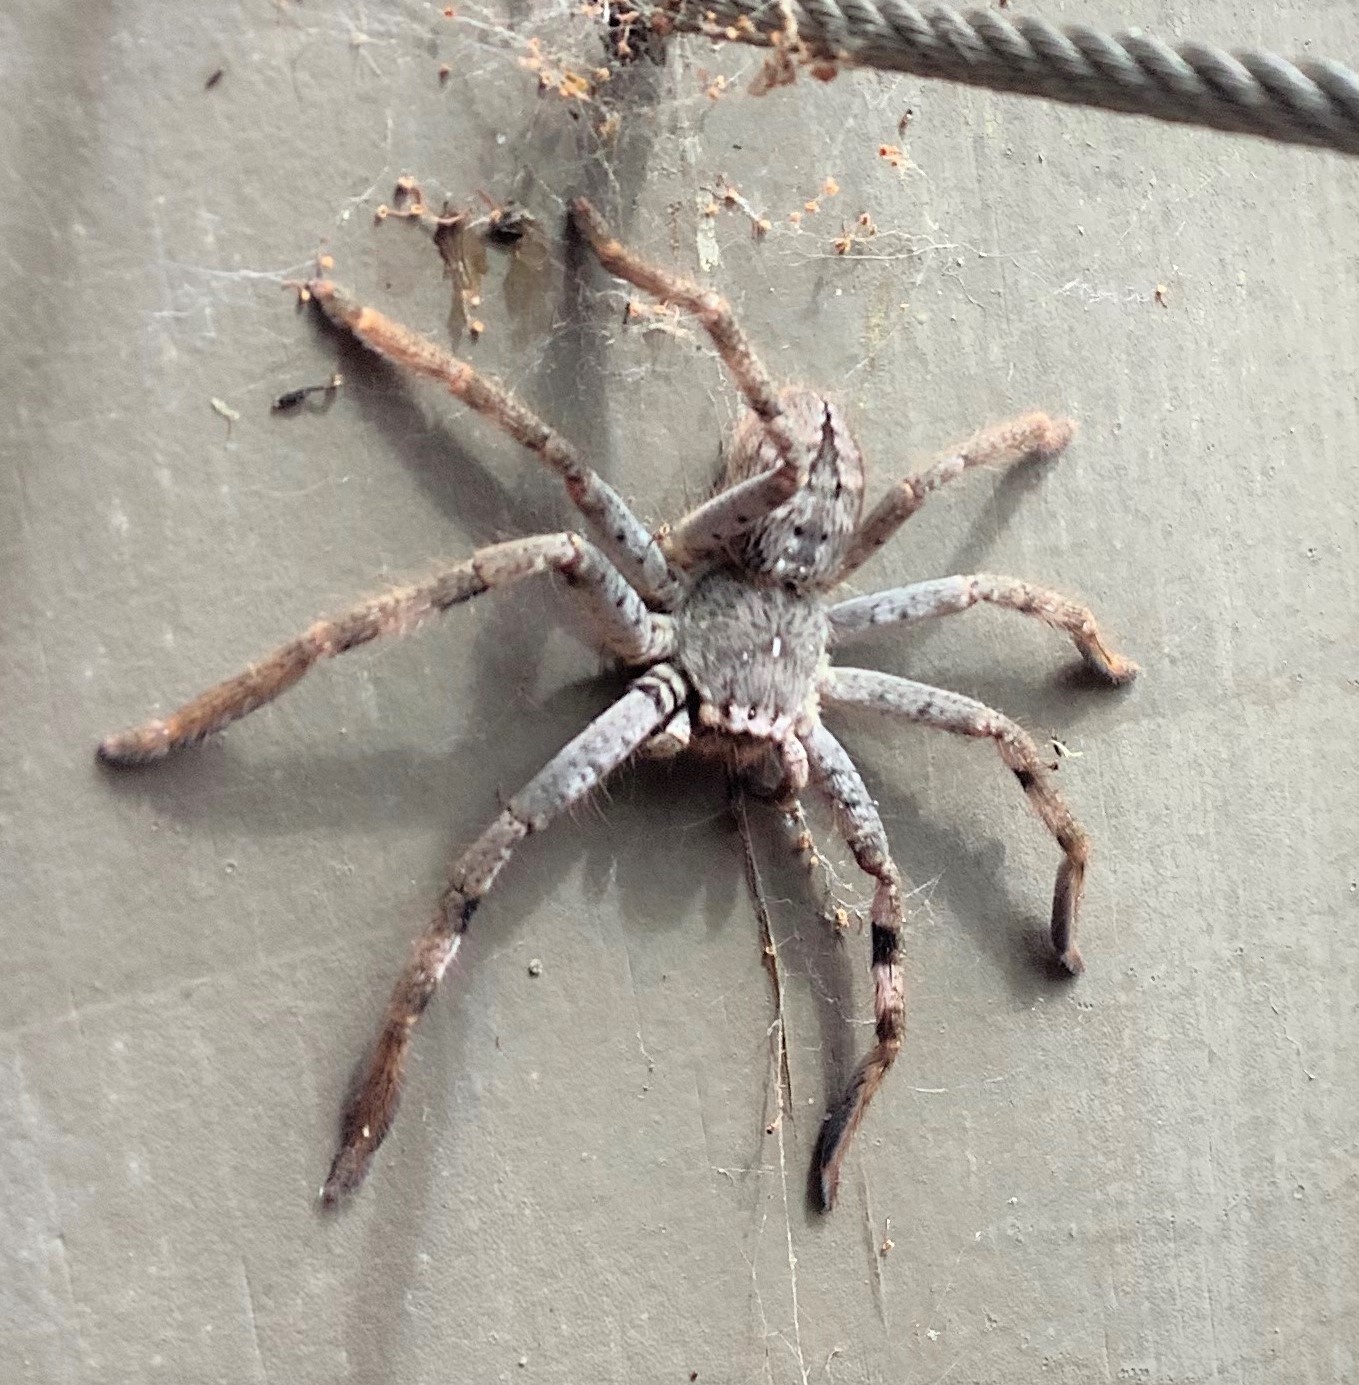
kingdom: Animalia
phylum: Arthropoda
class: Arachnida
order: Araneae
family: Sparassidae
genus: Isopedella
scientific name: Isopedella victorialis
